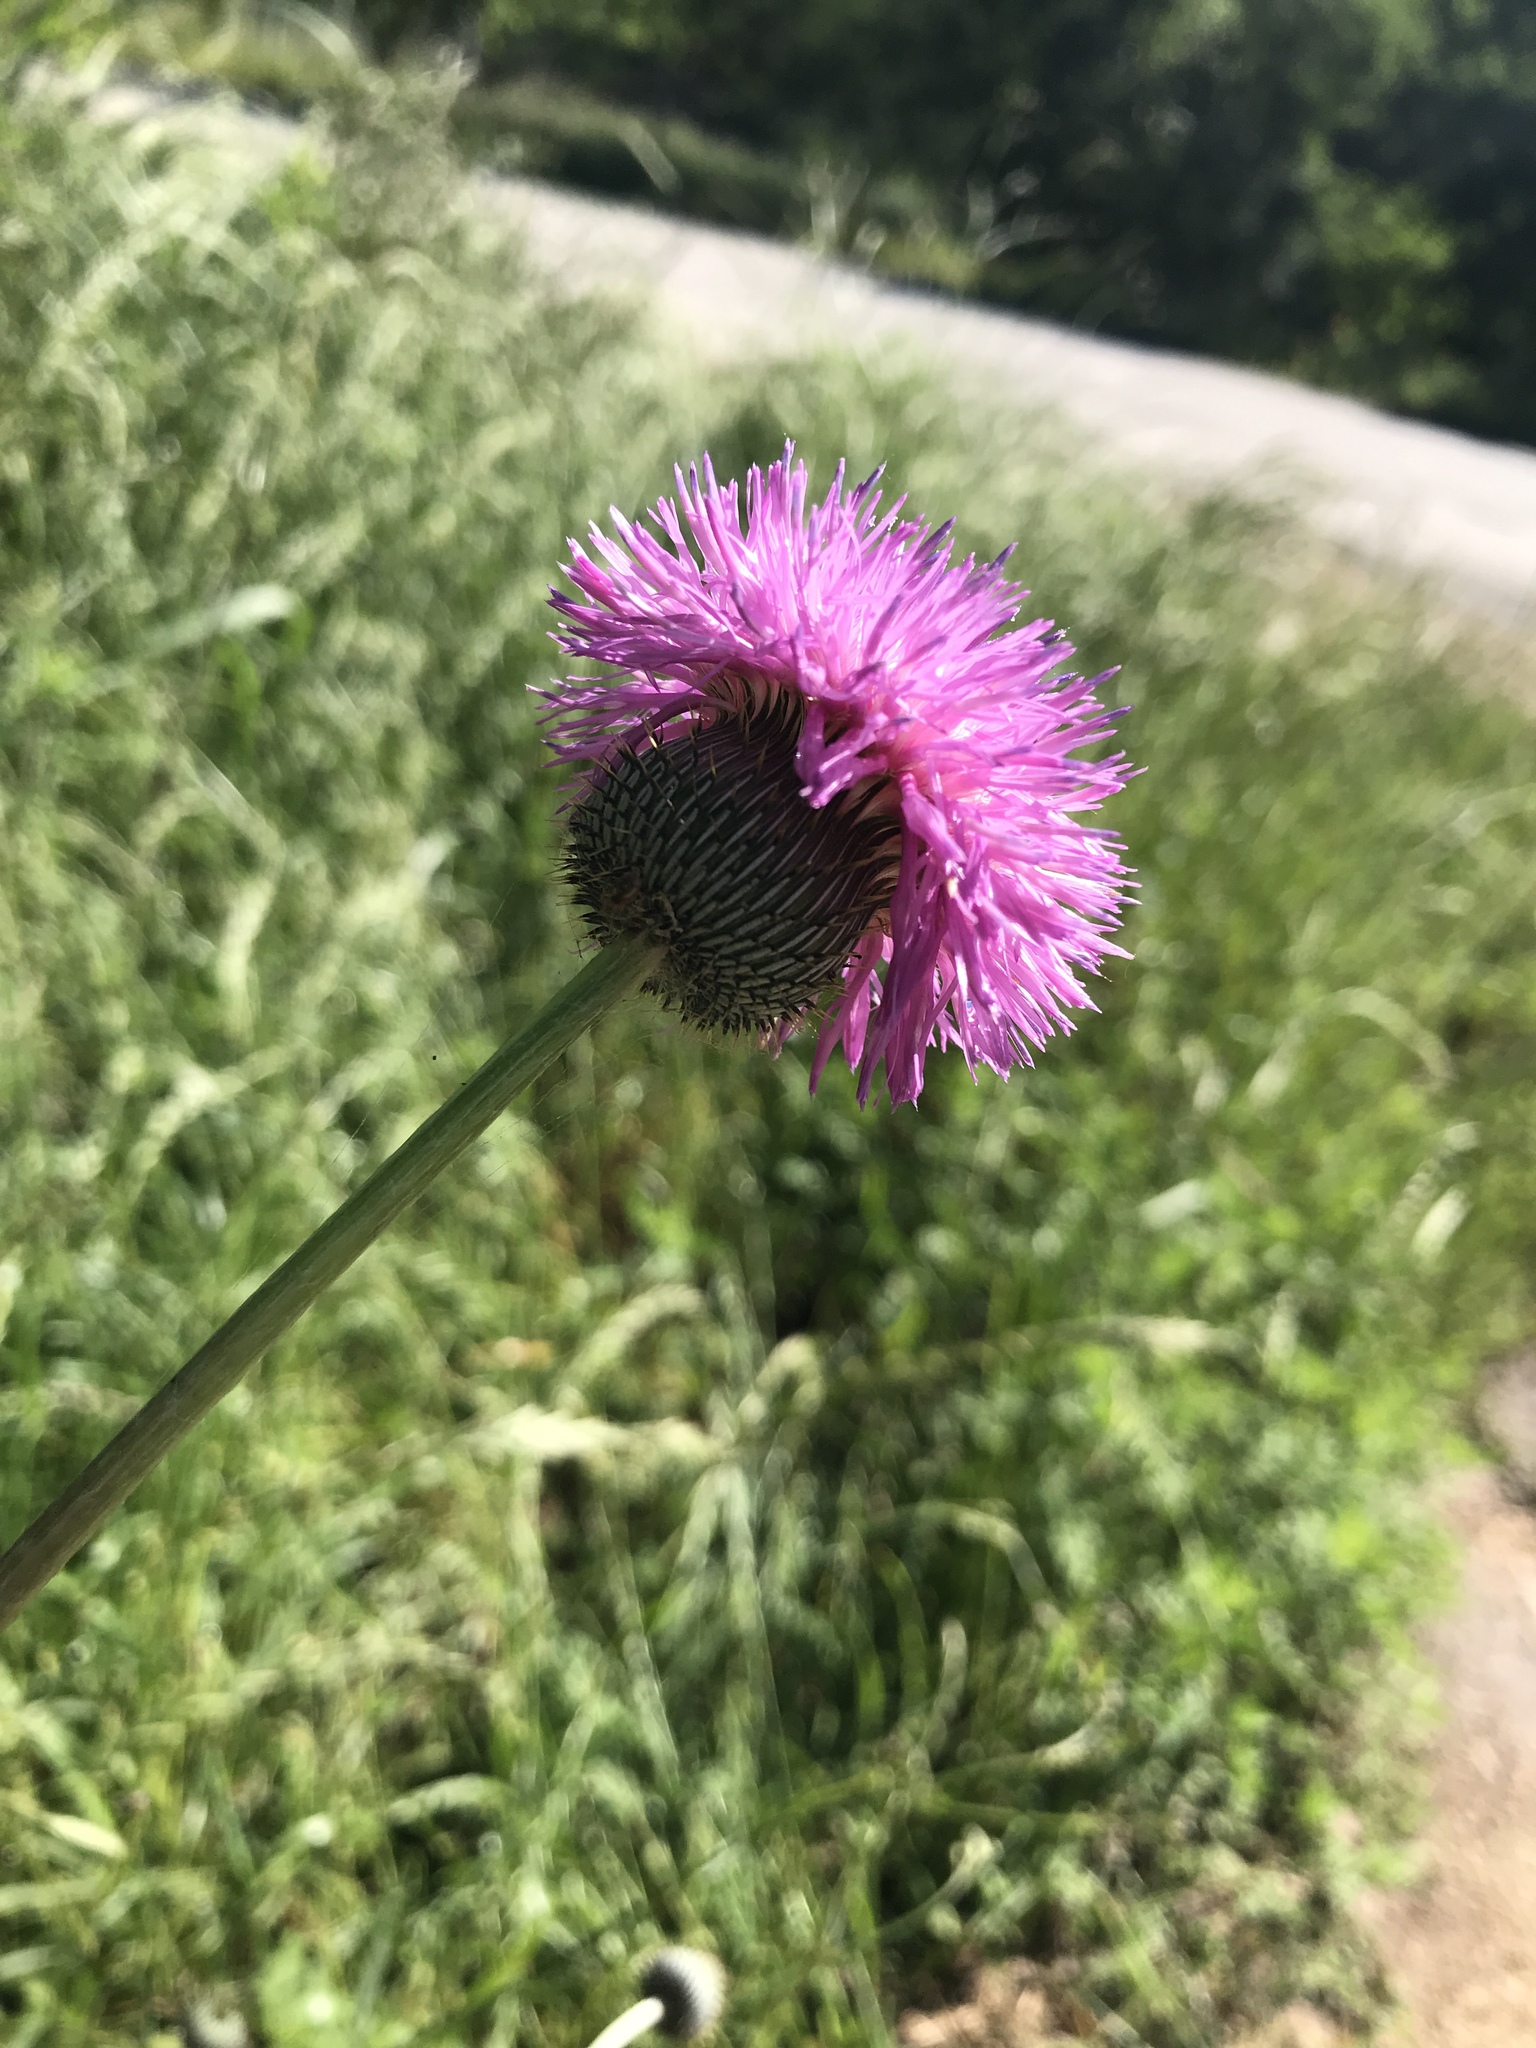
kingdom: Plantae
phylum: Tracheophyta
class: Magnoliopsida
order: Asterales
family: Asteraceae
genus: Cirsium
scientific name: Cirsium texanum
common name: Texas purple thistle
